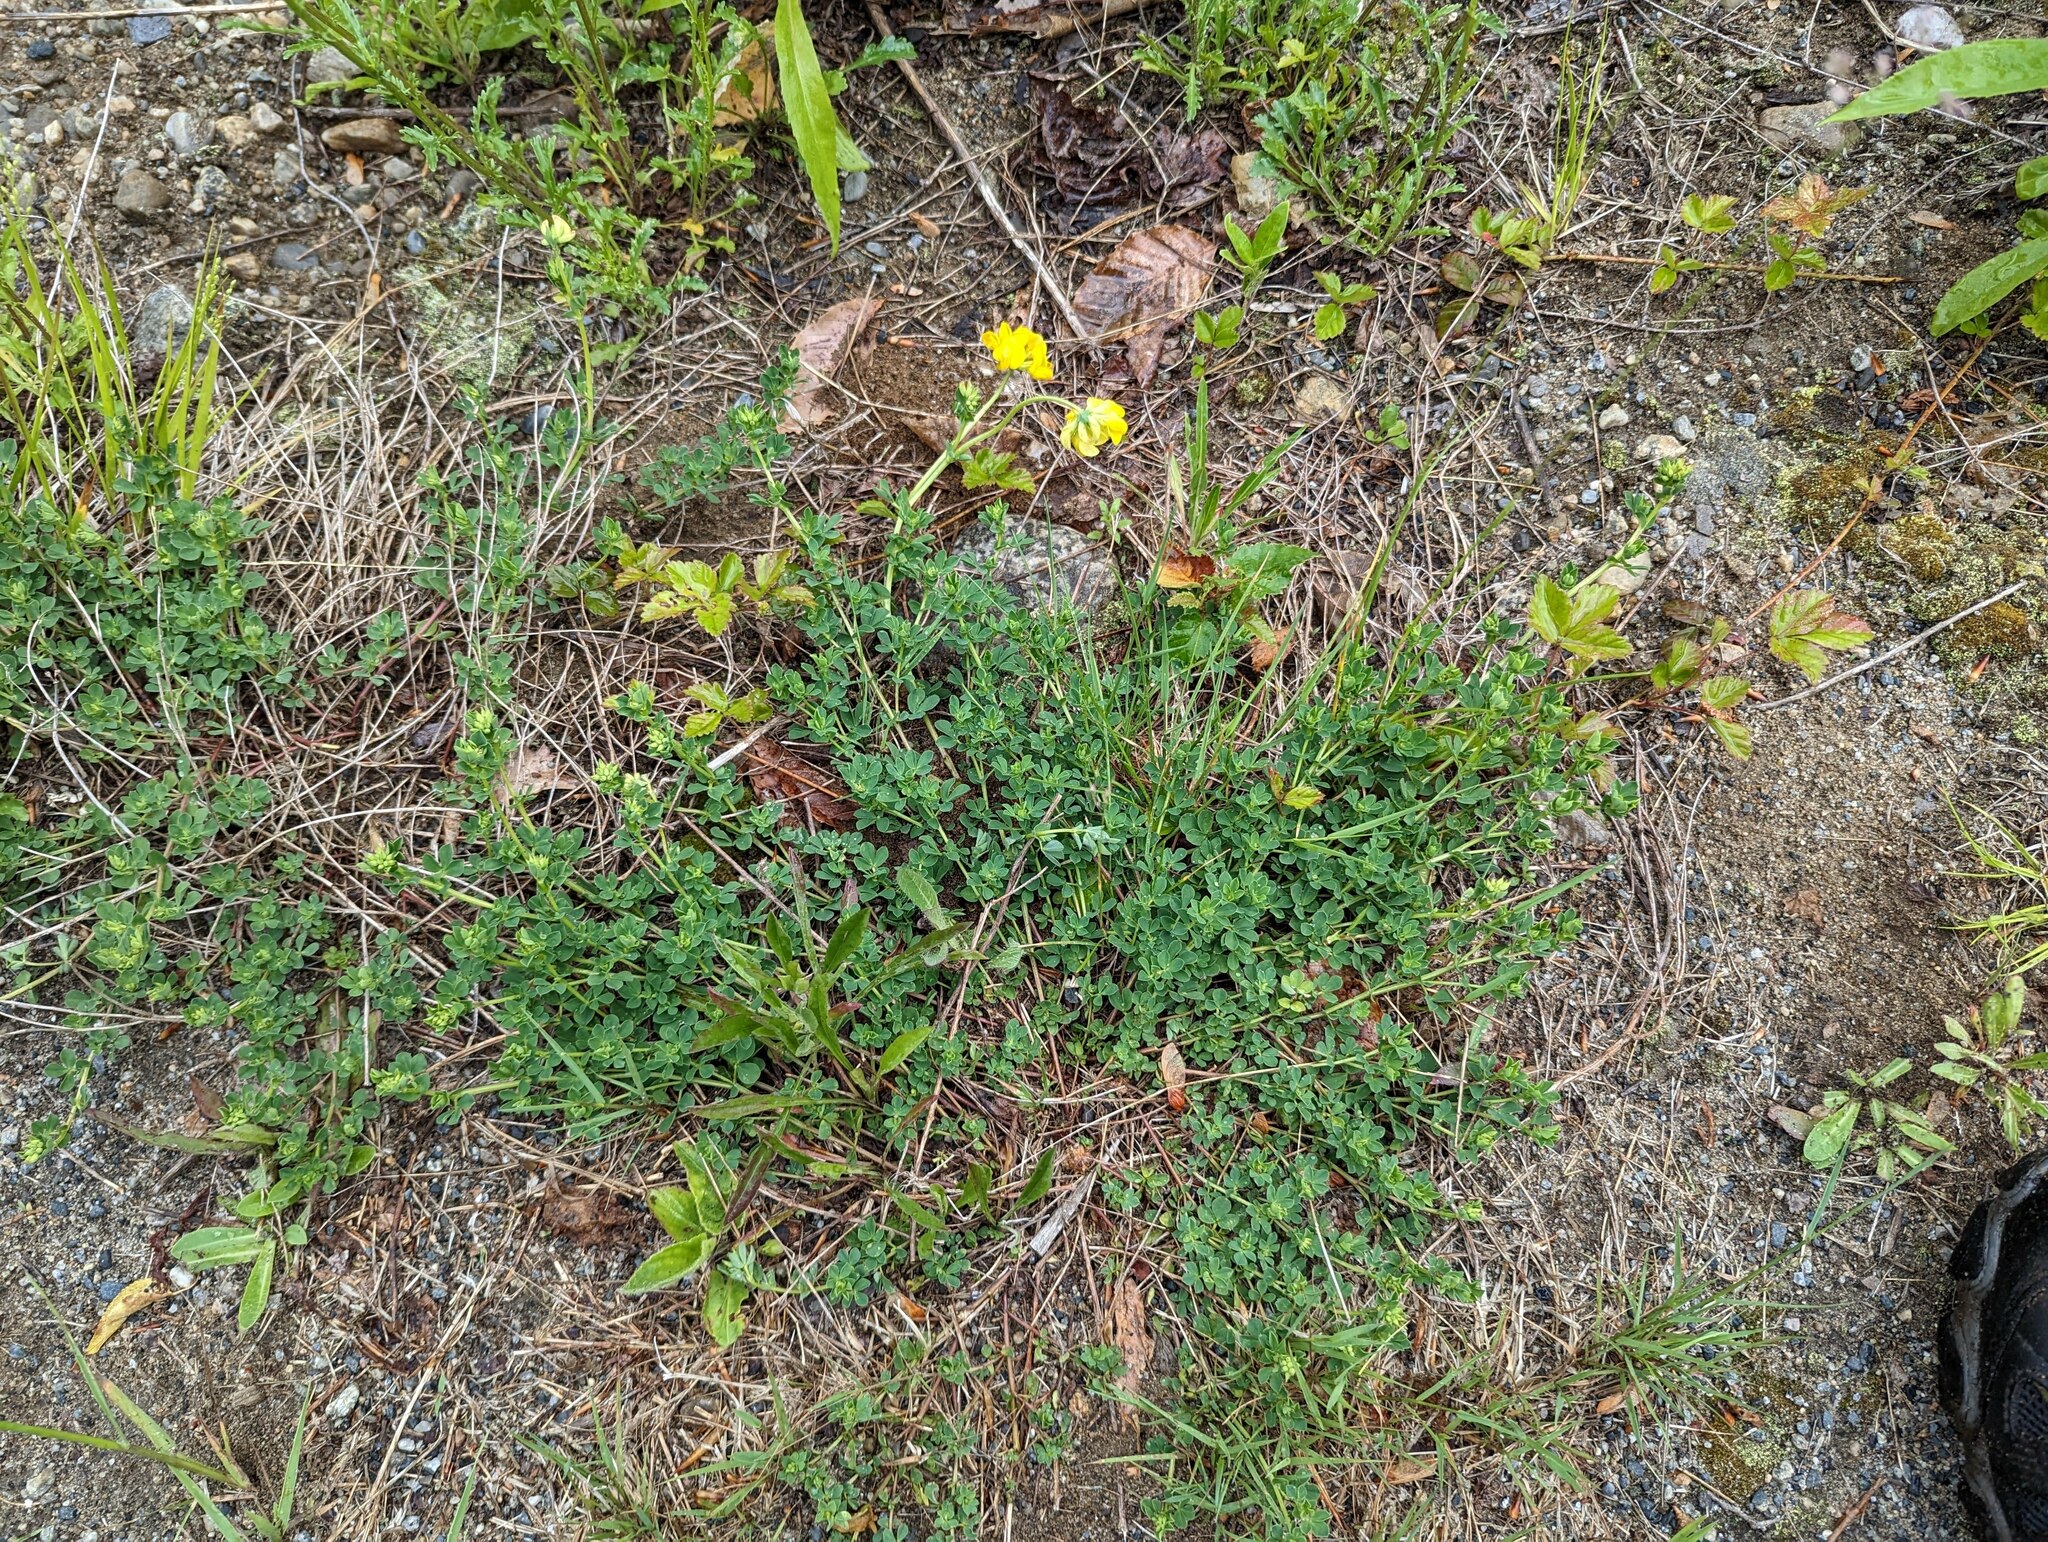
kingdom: Plantae
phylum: Tracheophyta
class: Magnoliopsida
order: Fabales
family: Fabaceae
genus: Lotus
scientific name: Lotus corniculatus
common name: Common bird's-foot-trefoil
